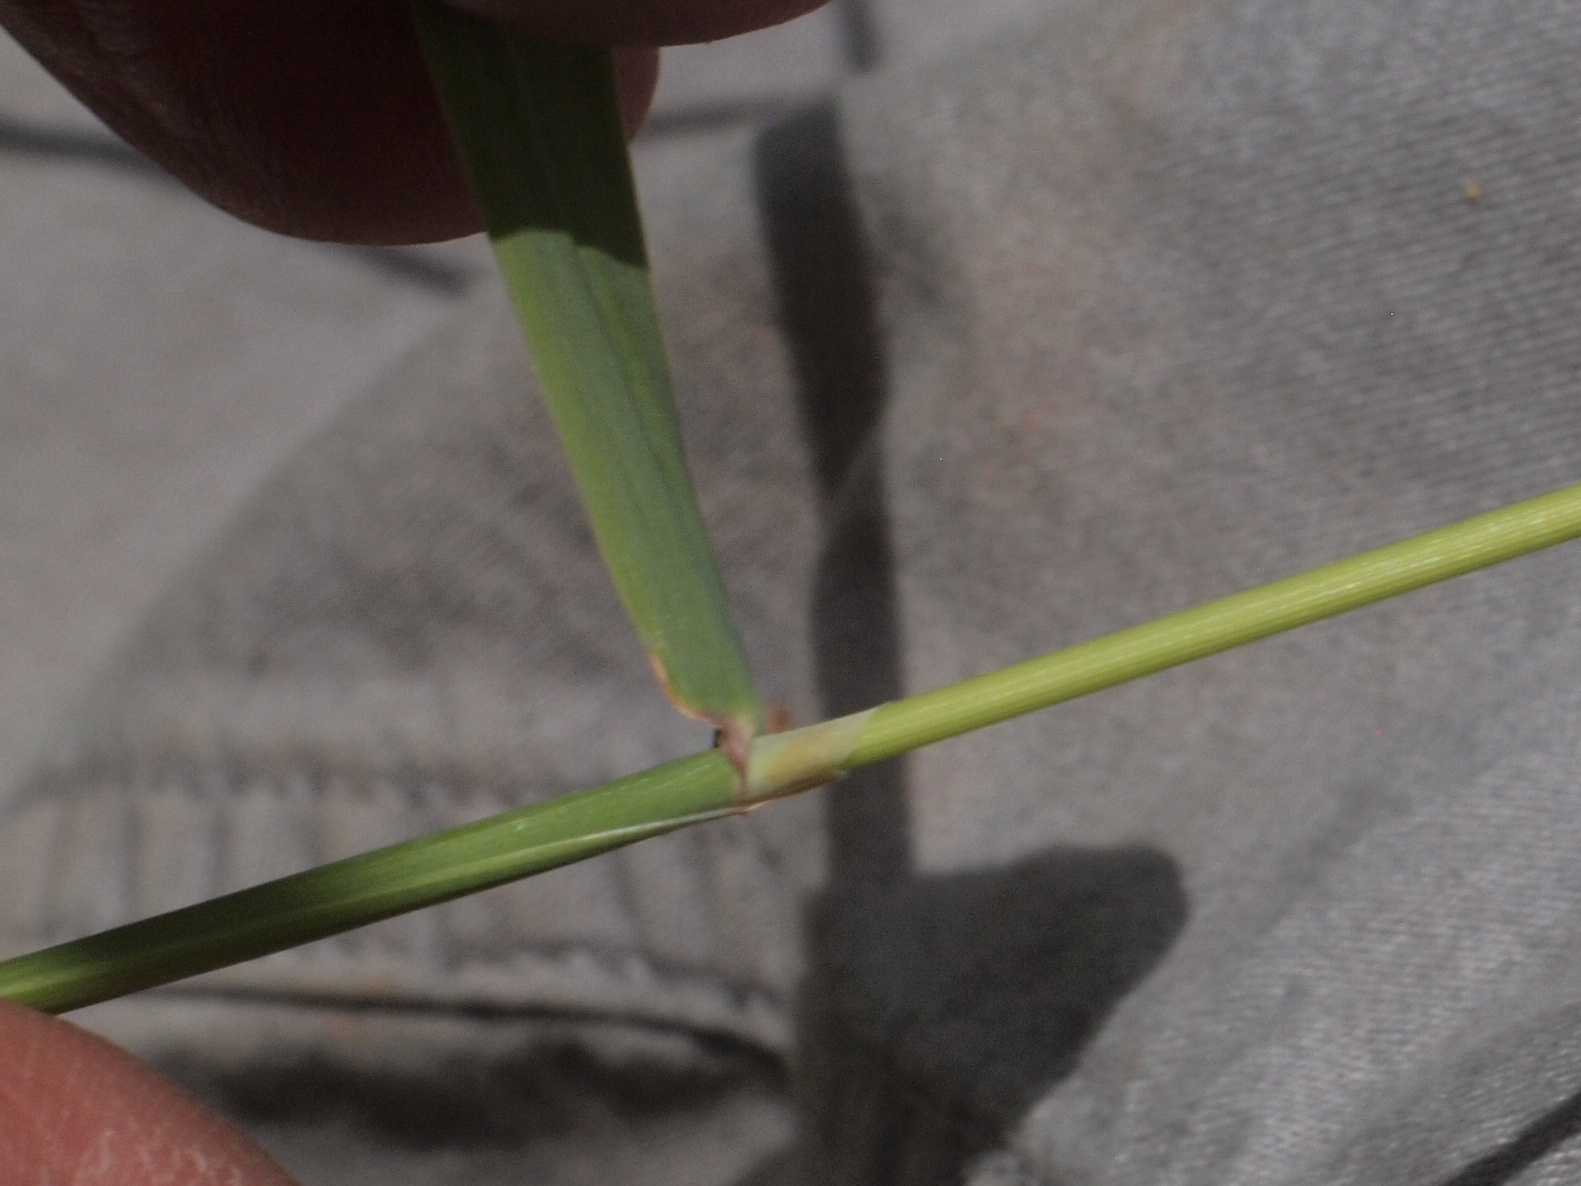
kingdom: Plantae
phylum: Tracheophyta
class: Liliopsida
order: Poales
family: Poaceae
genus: Phleum
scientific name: Phleum pratense
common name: Timothy grass
